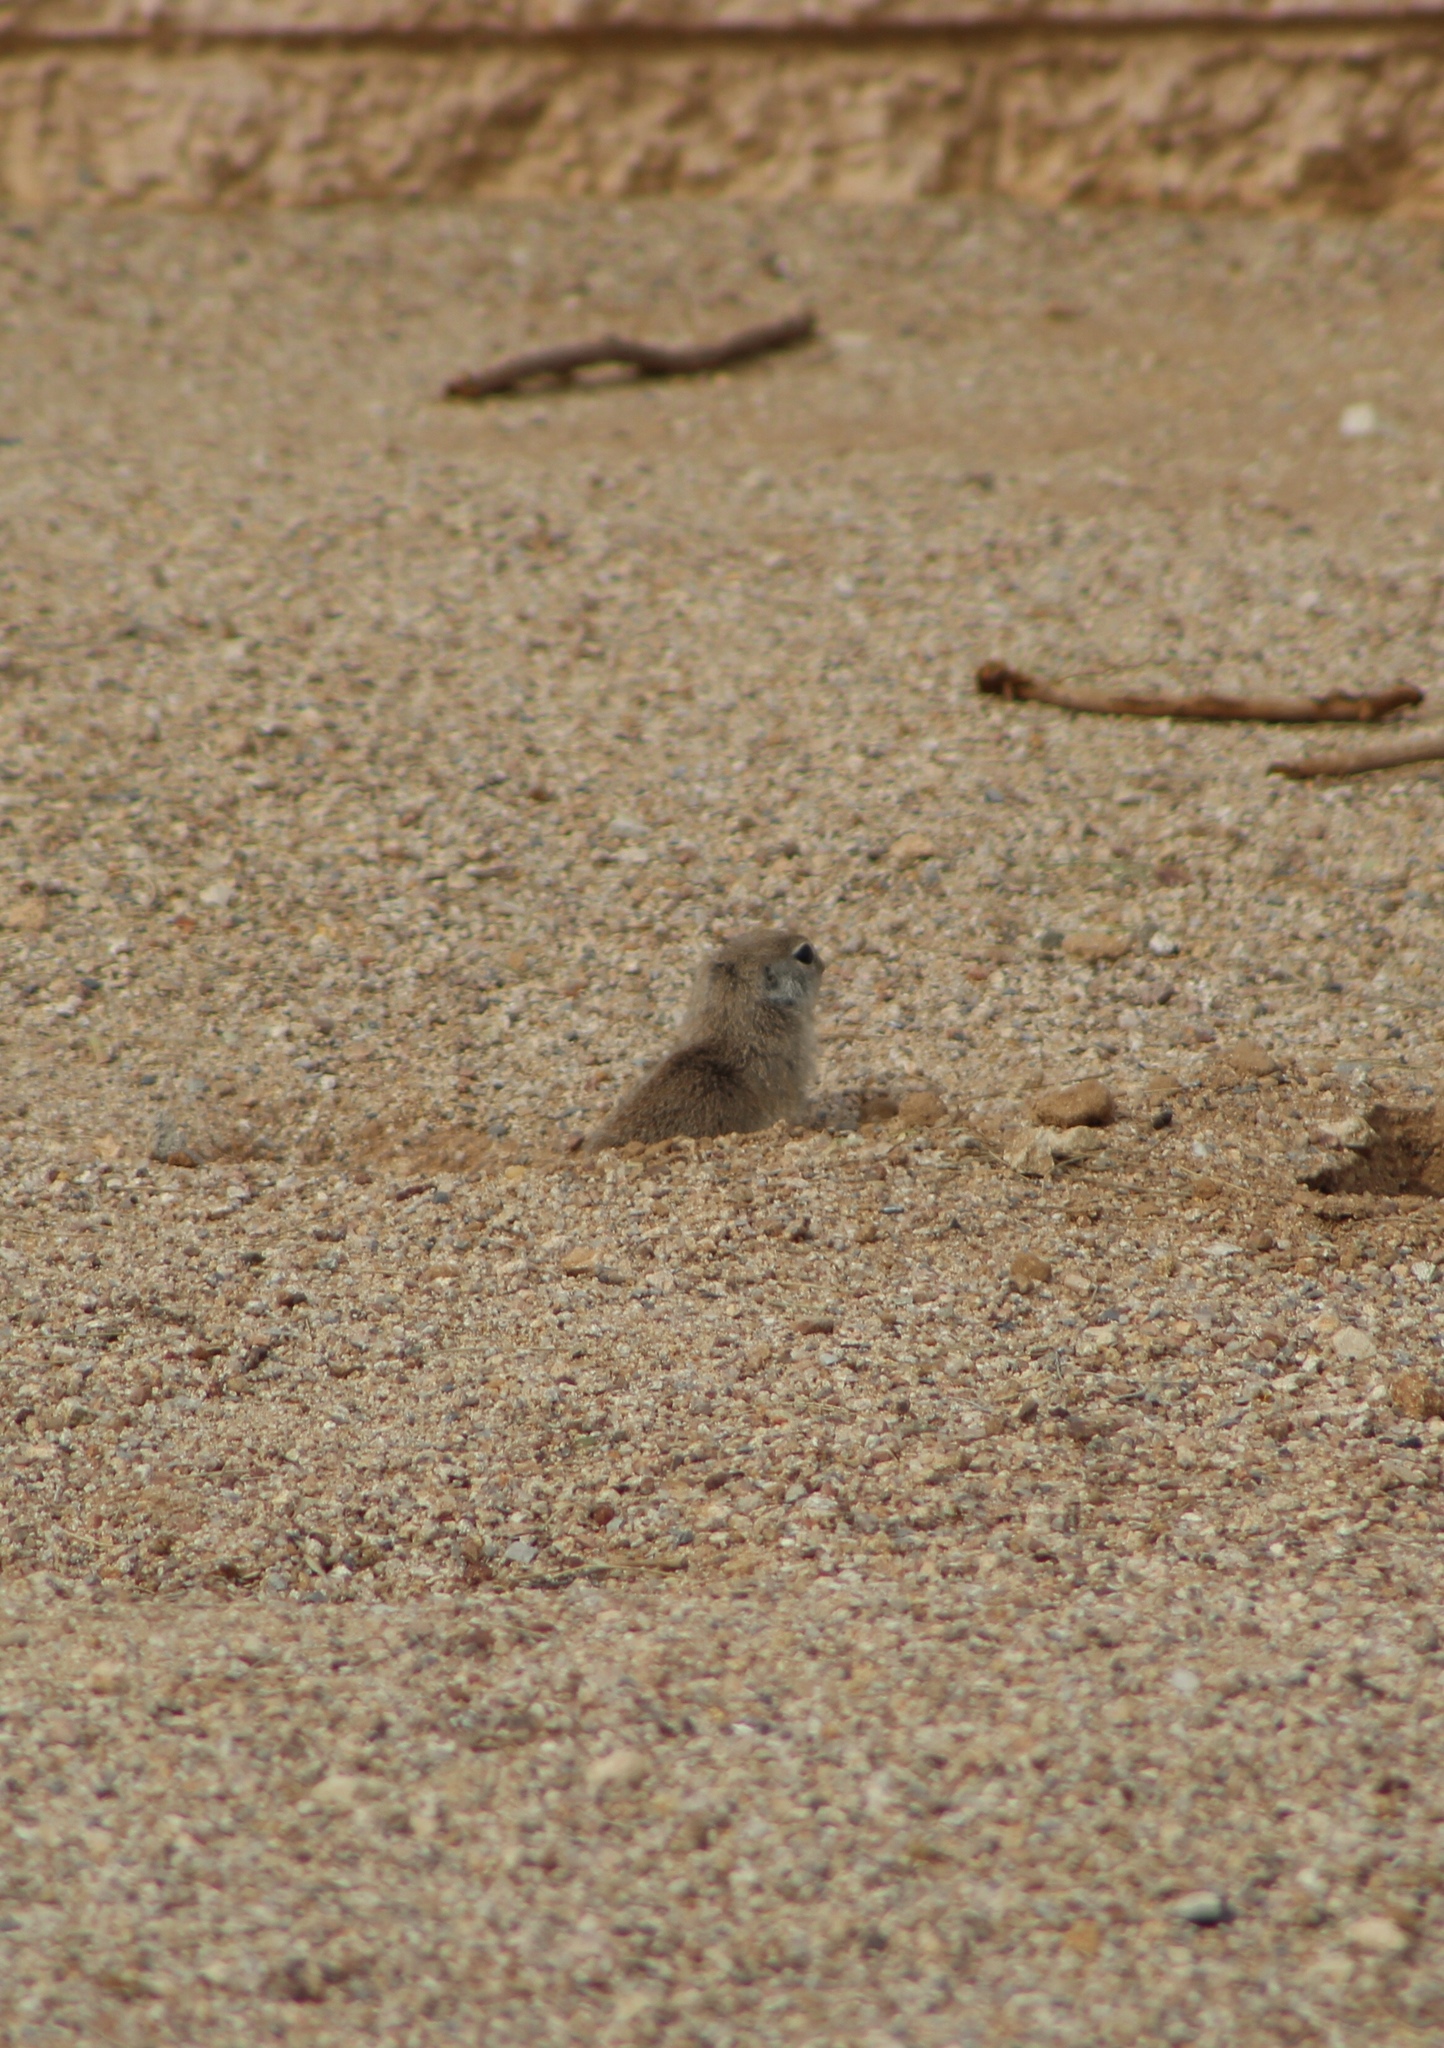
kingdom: Animalia
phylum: Chordata
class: Mammalia
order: Rodentia
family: Sciuridae
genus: Xerospermophilus
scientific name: Xerospermophilus tereticaudus
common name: Round-tailed ground squirrel
